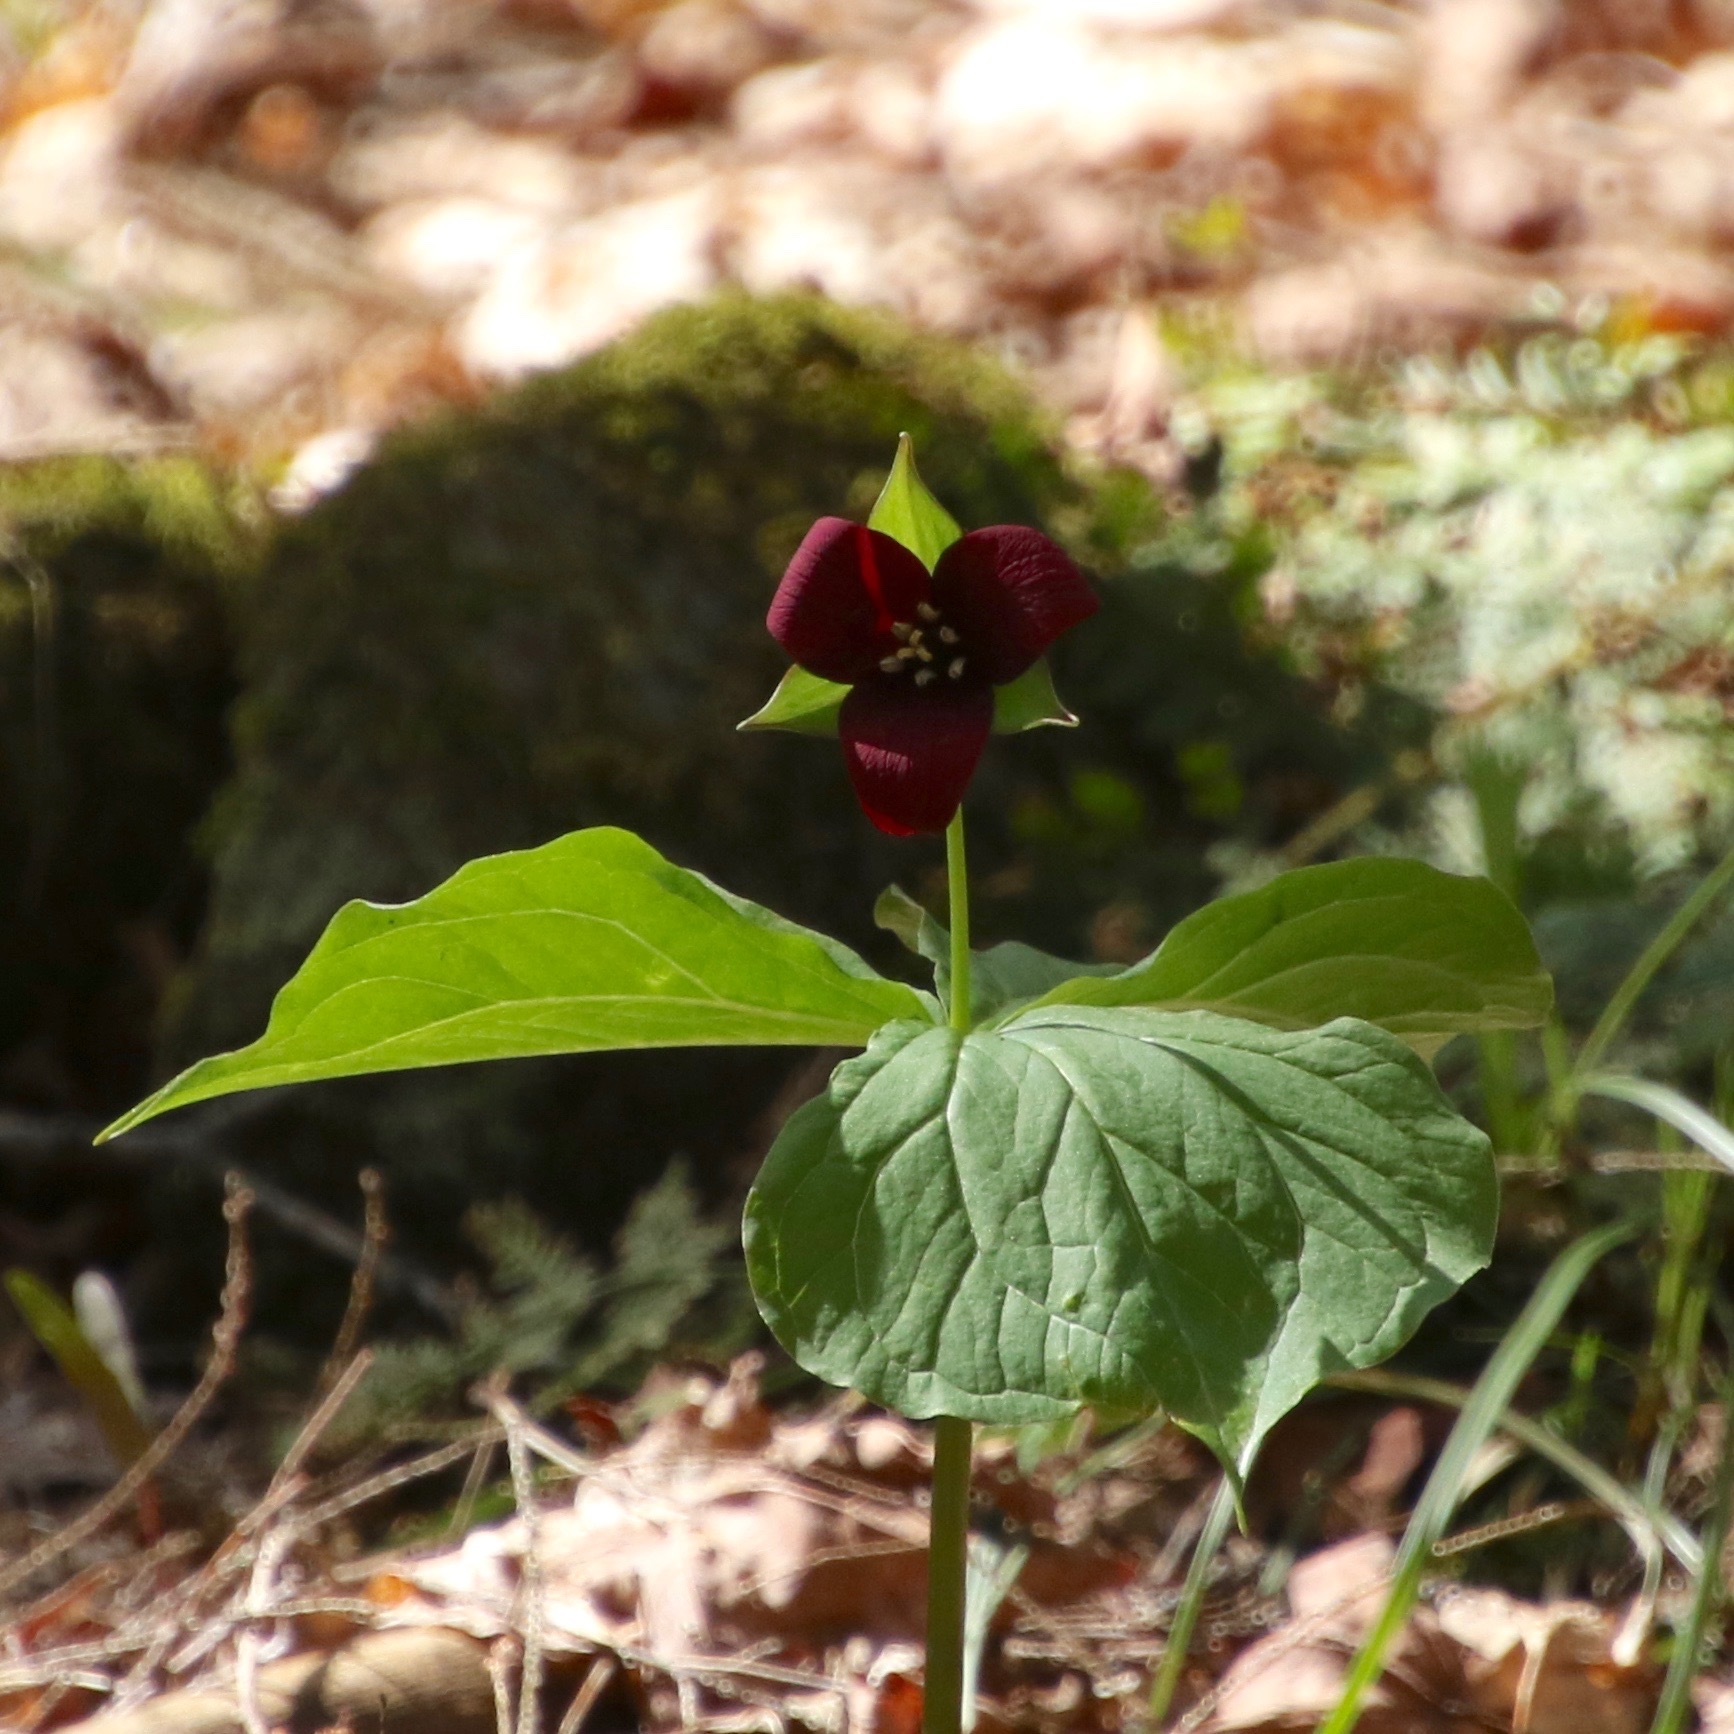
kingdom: Plantae
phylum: Tracheophyta
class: Liliopsida
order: Liliales
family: Melanthiaceae
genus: Trillium
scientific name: Trillium erectum
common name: Purple trillium
